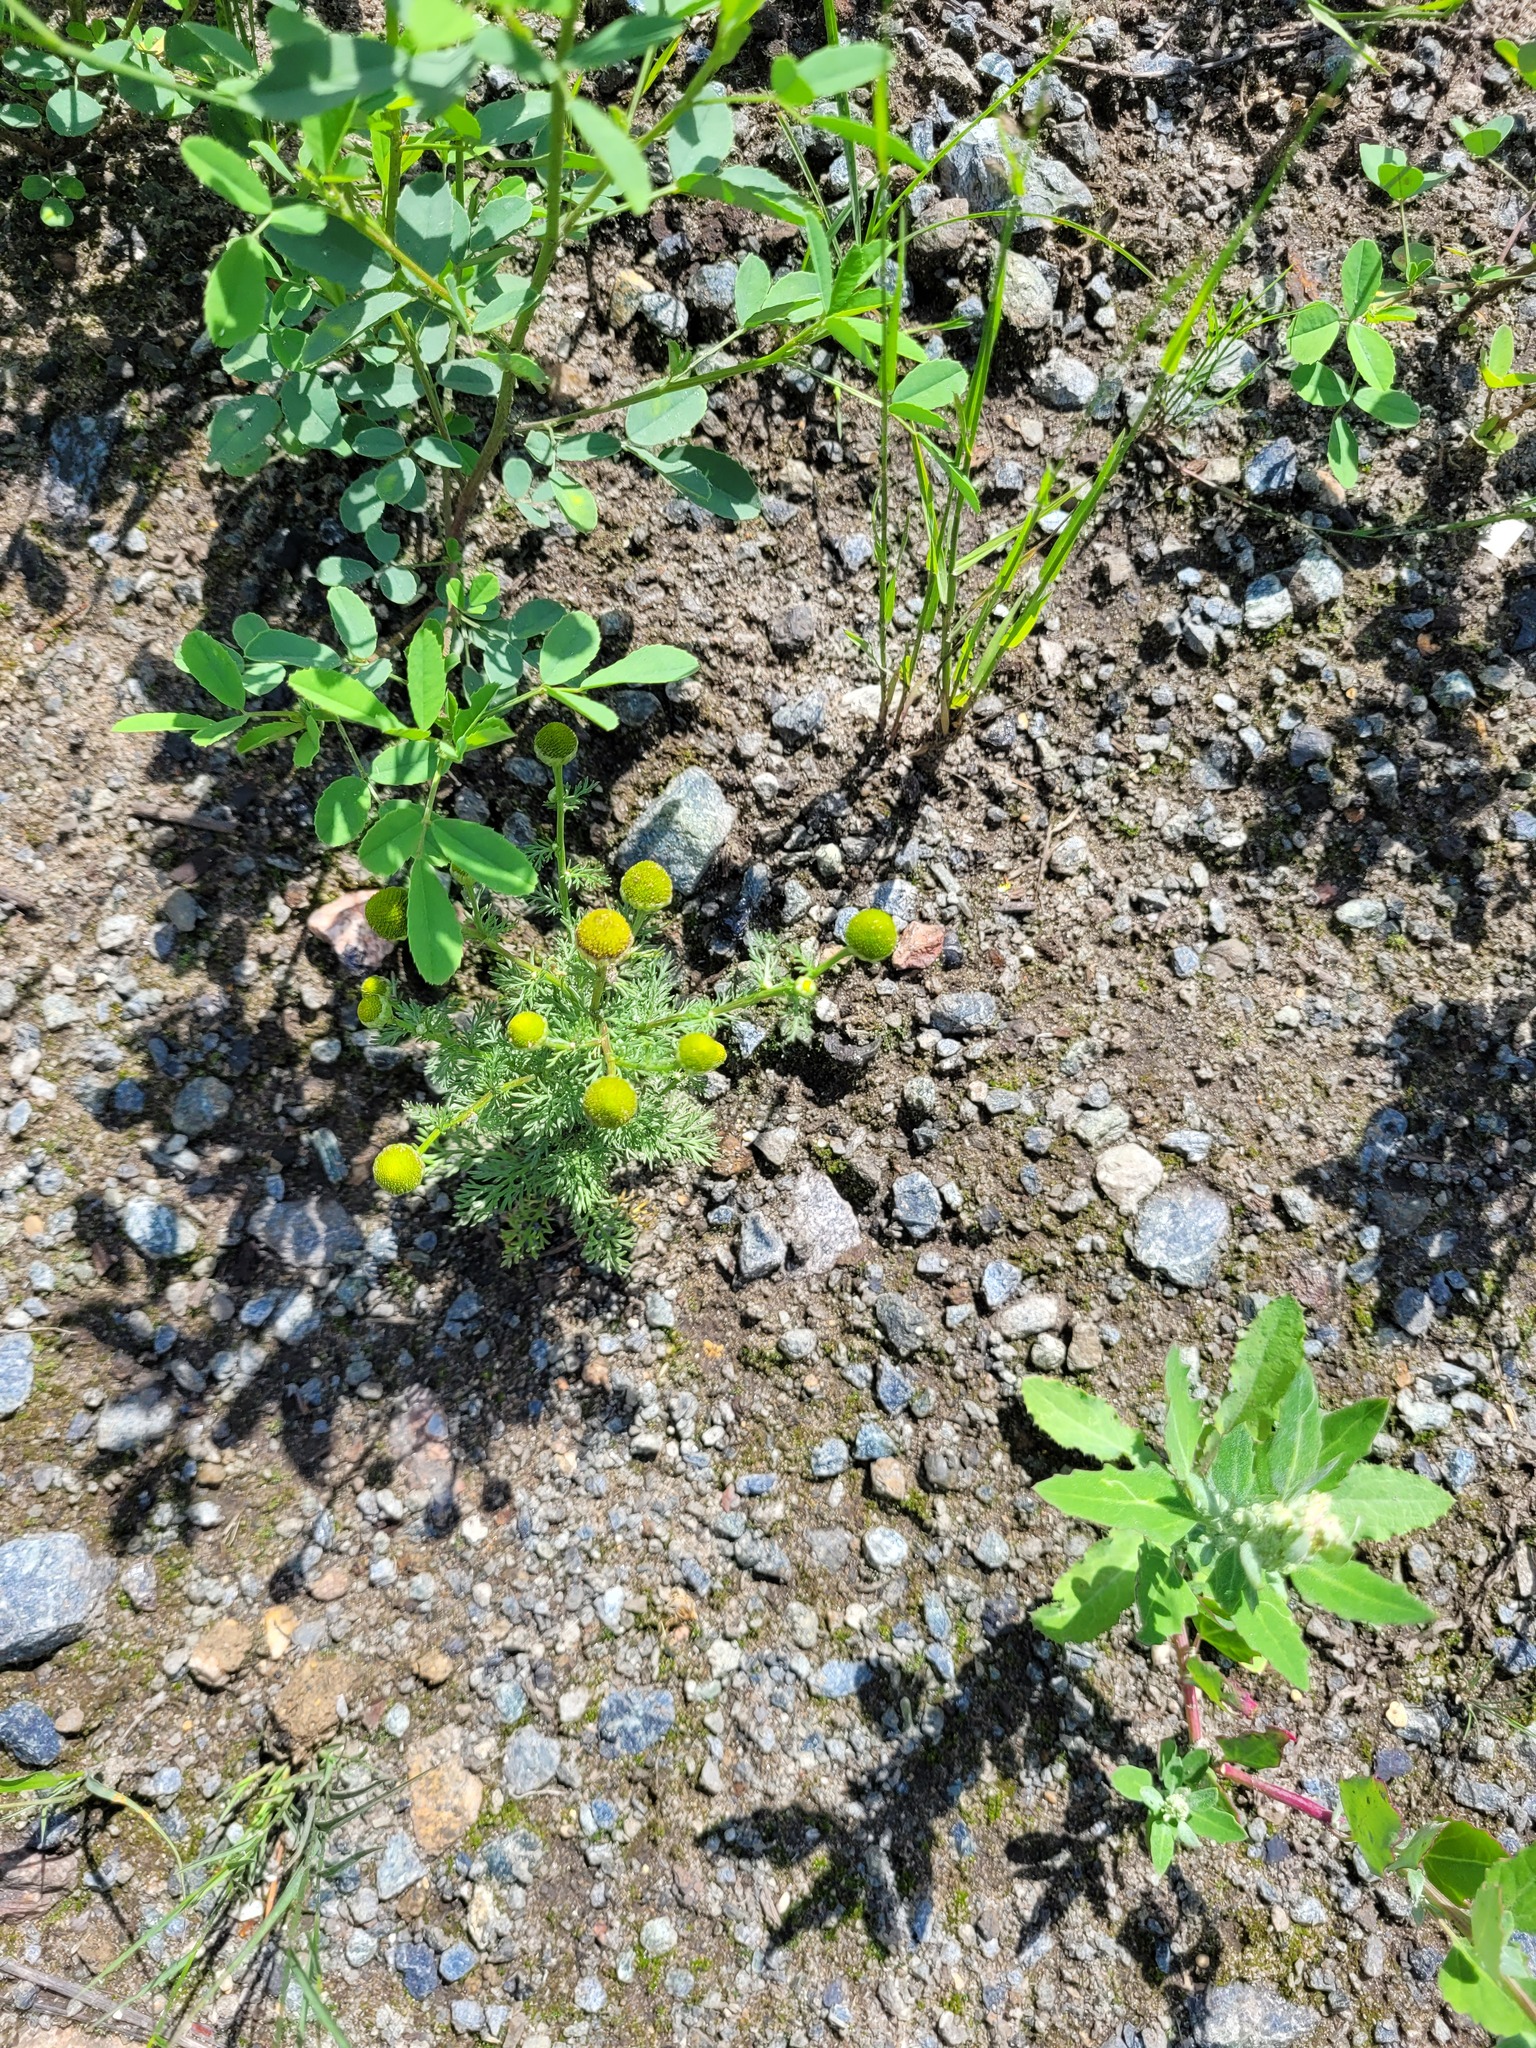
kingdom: Plantae
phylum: Tracheophyta
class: Magnoliopsida
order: Asterales
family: Asteraceae
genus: Matricaria
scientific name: Matricaria discoidea
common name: Disc mayweed
